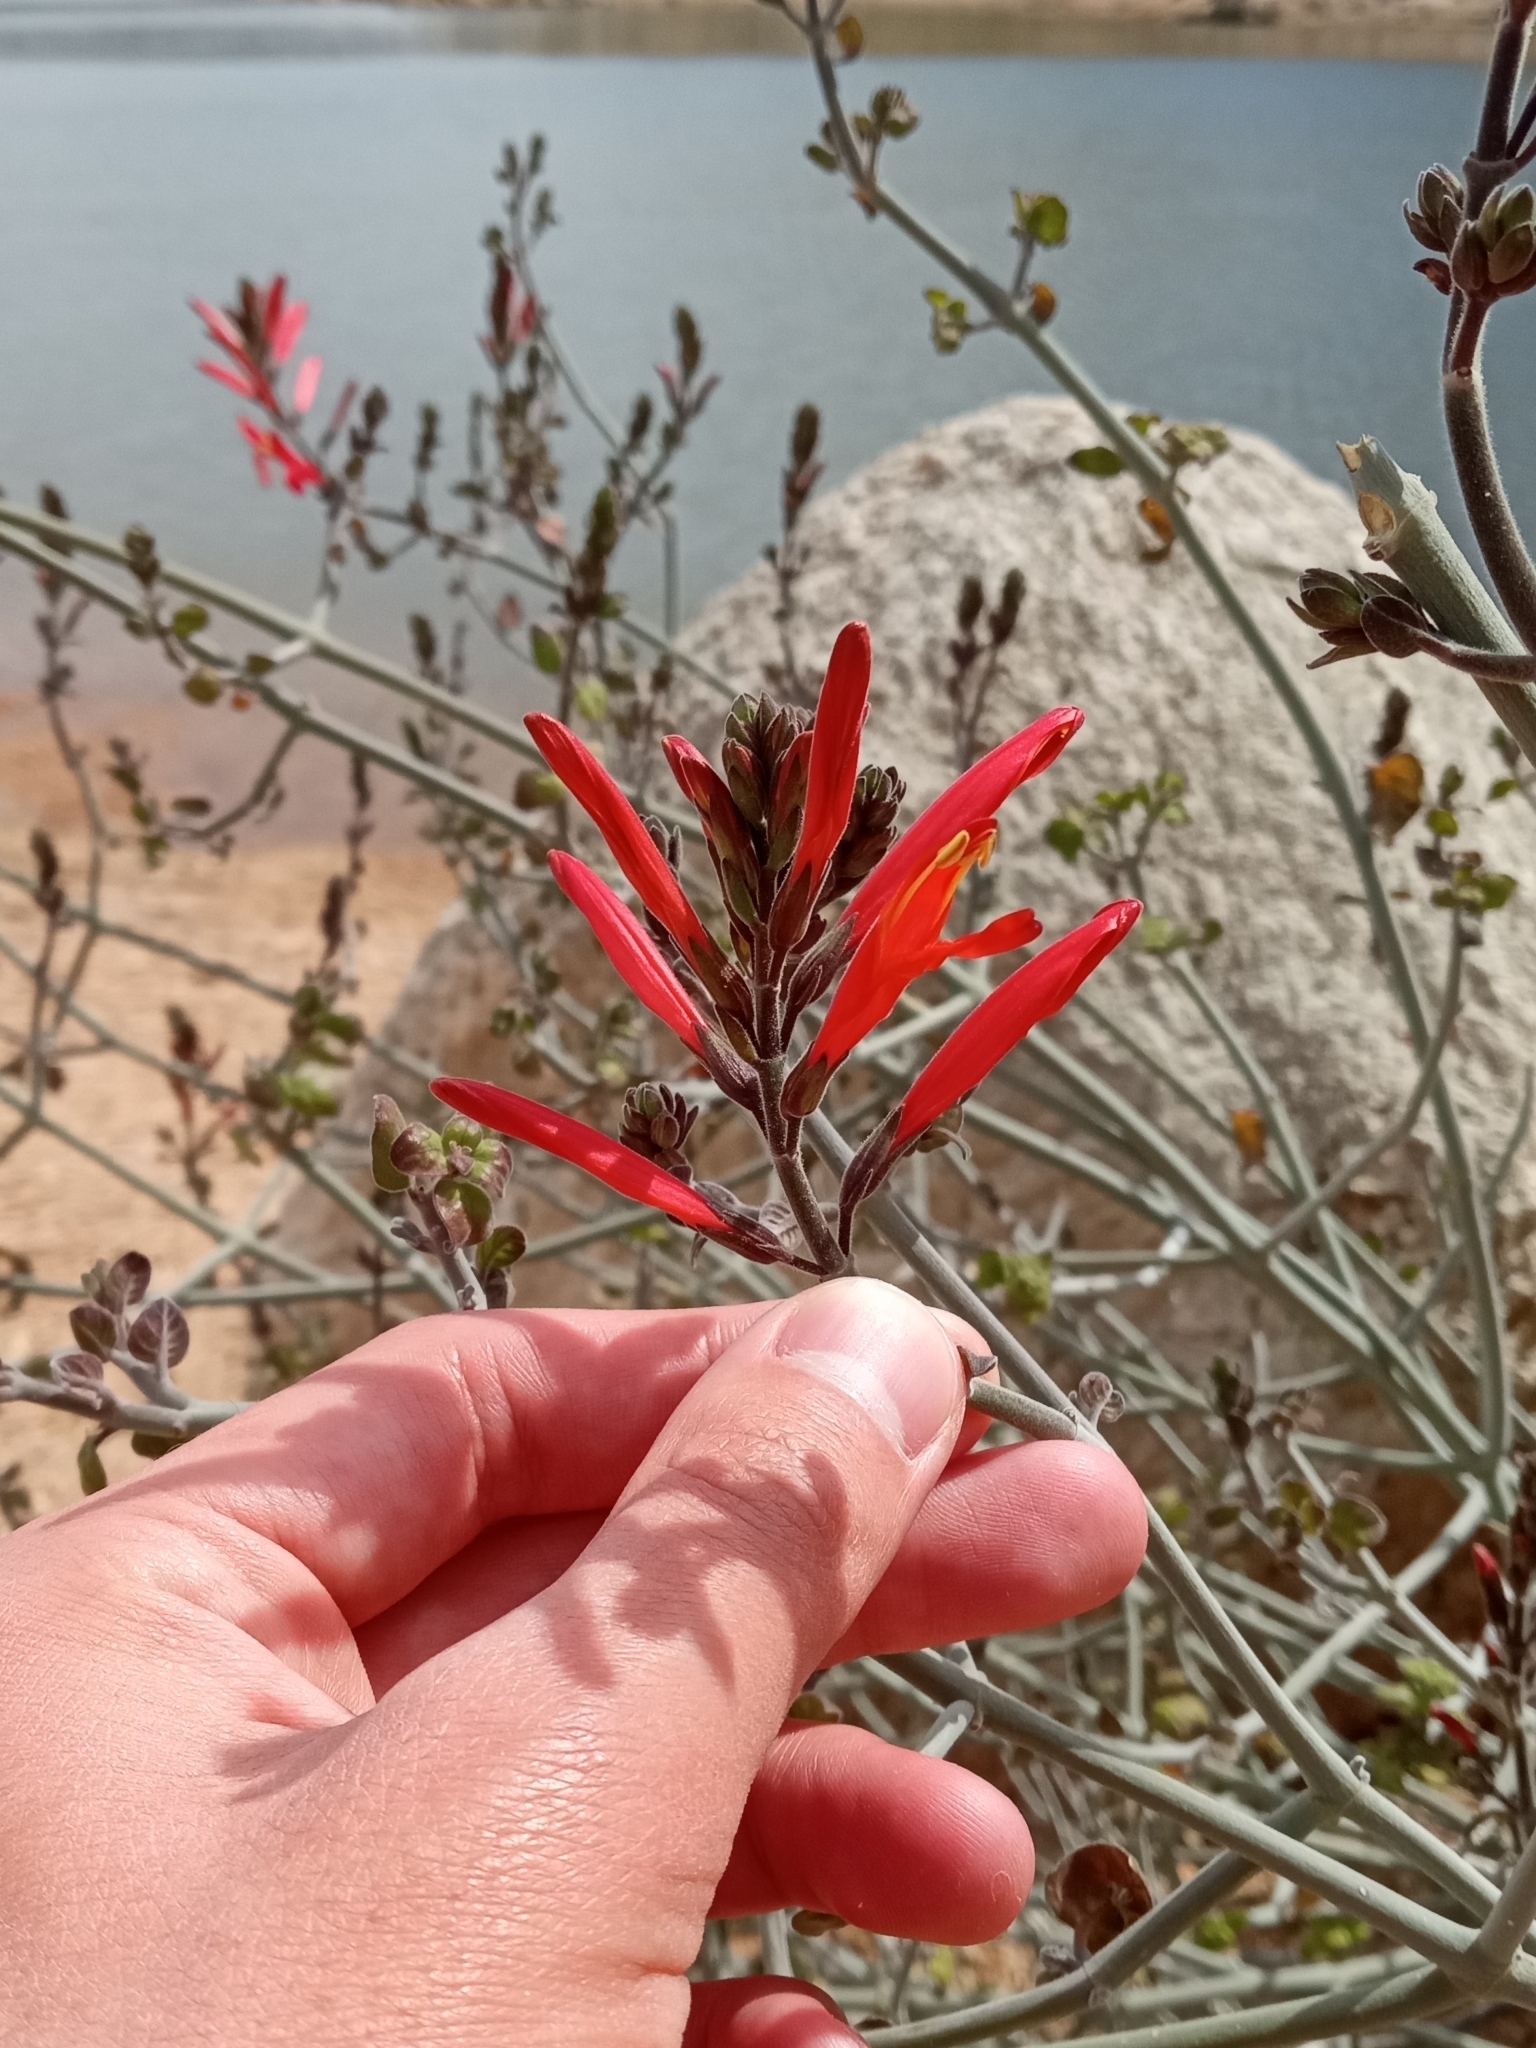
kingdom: Plantae
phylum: Tracheophyta
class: Magnoliopsida
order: Lamiales
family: Acanthaceae
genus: Justicia
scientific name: Justicia californica
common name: Chuparosa-honeysuckle
